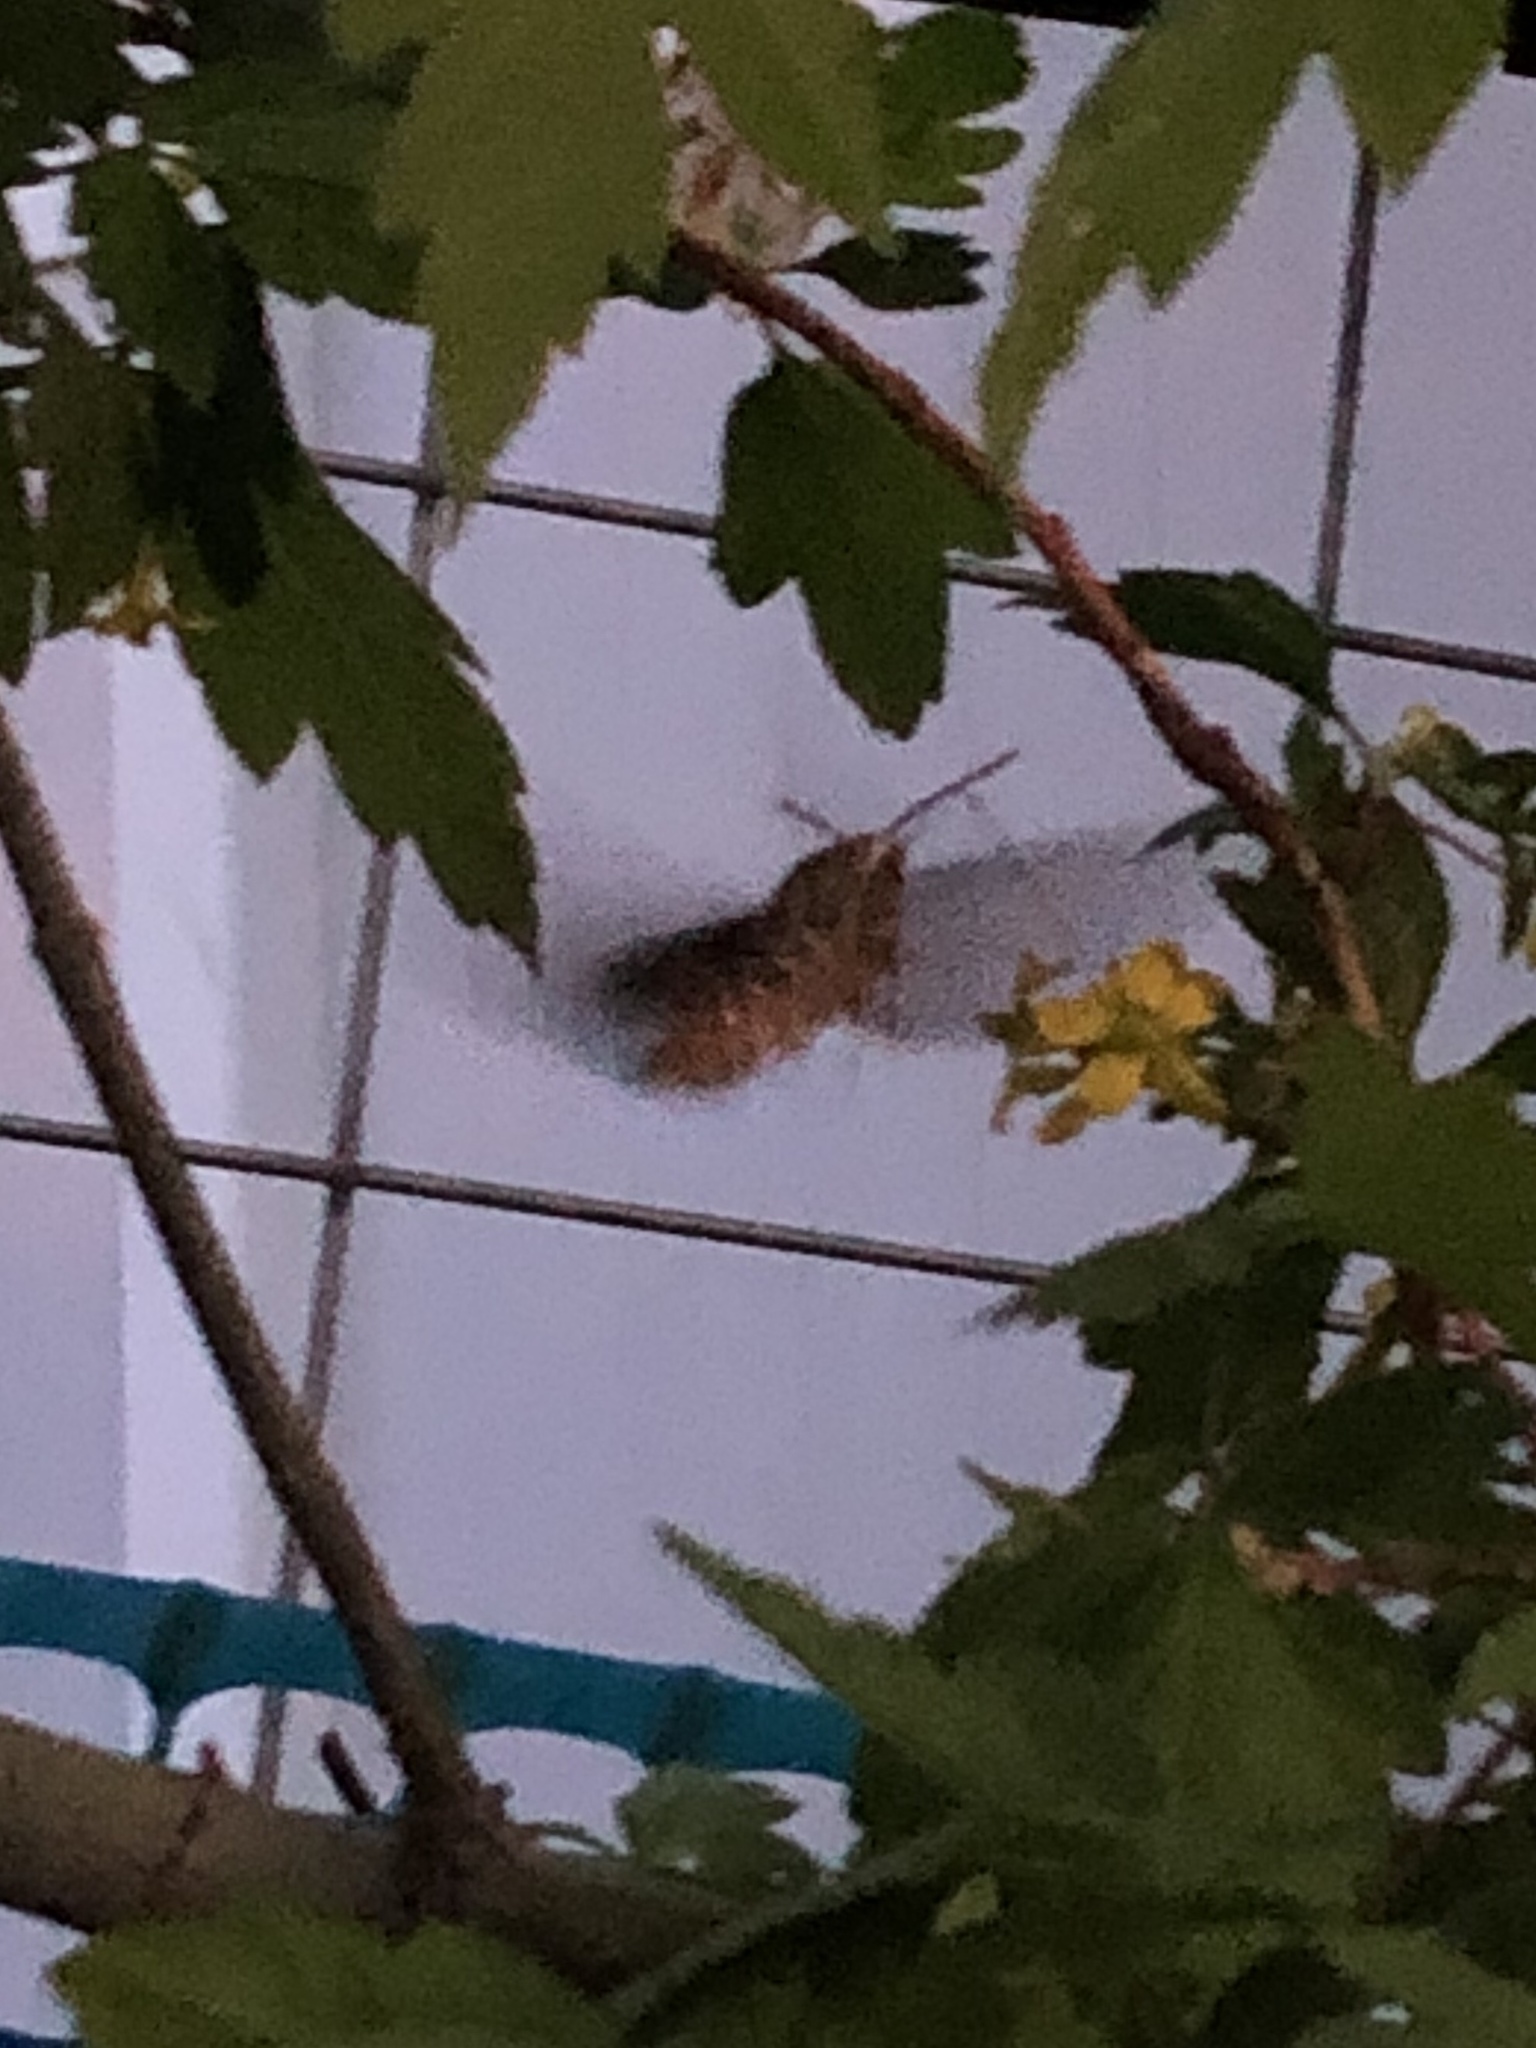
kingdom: Animalia
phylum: Arthropoda
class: Insecta
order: Lepidoptera
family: Sphingidae
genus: Hyles
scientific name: Hyles lineata
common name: White-lined sphinx
